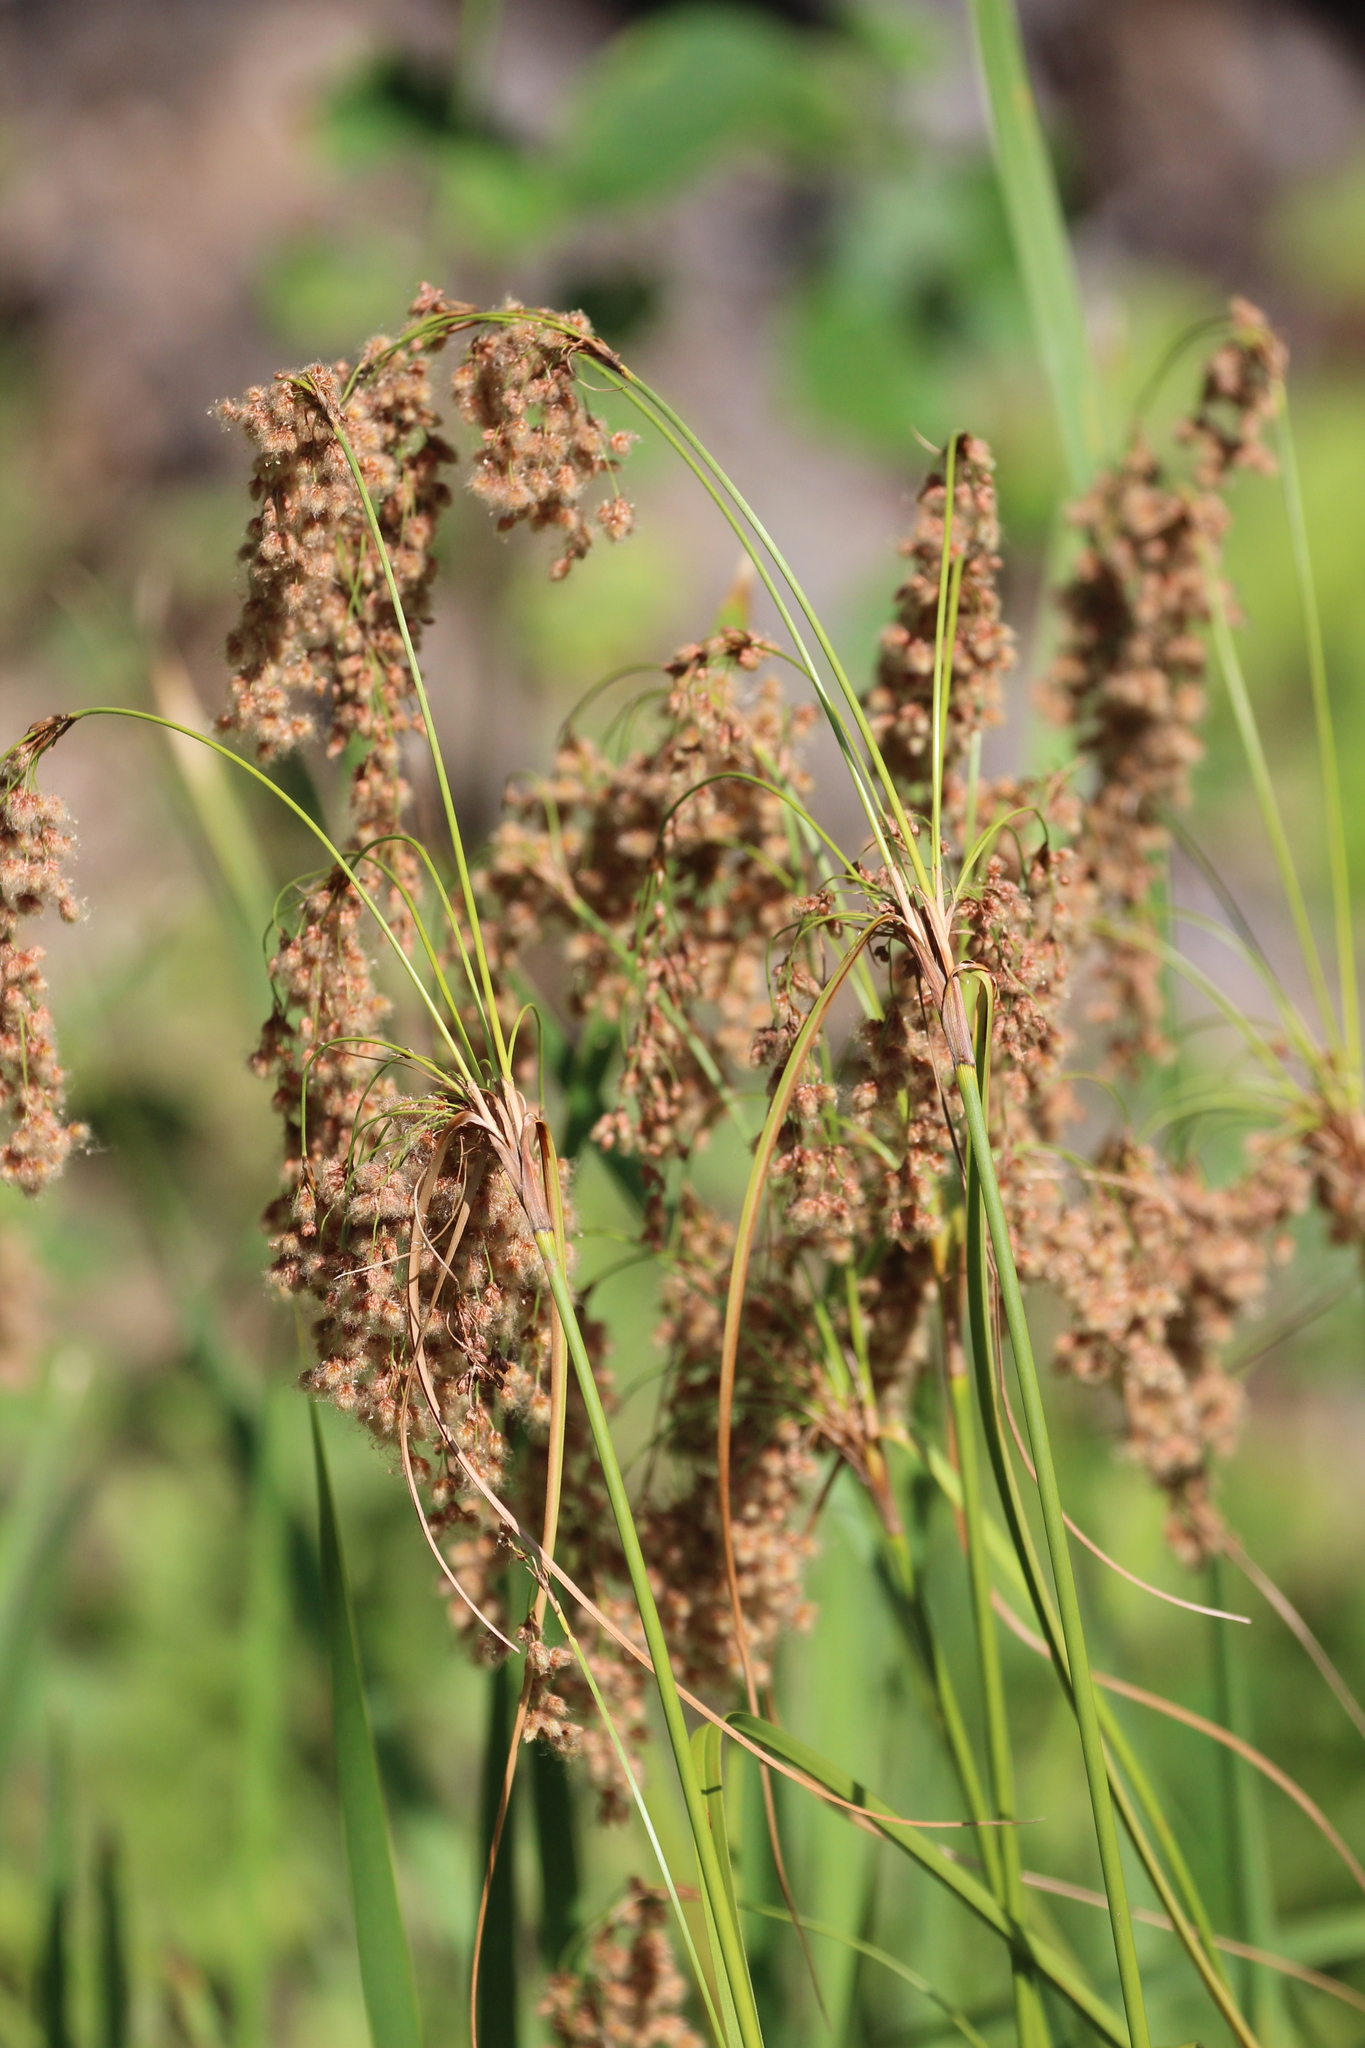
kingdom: Plantae
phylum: Tracheophyta
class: Liliopsida
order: Poales
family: Cyperaceae
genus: Scirpus
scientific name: Scirpus cyperinus
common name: Black-sheathed bulrush
